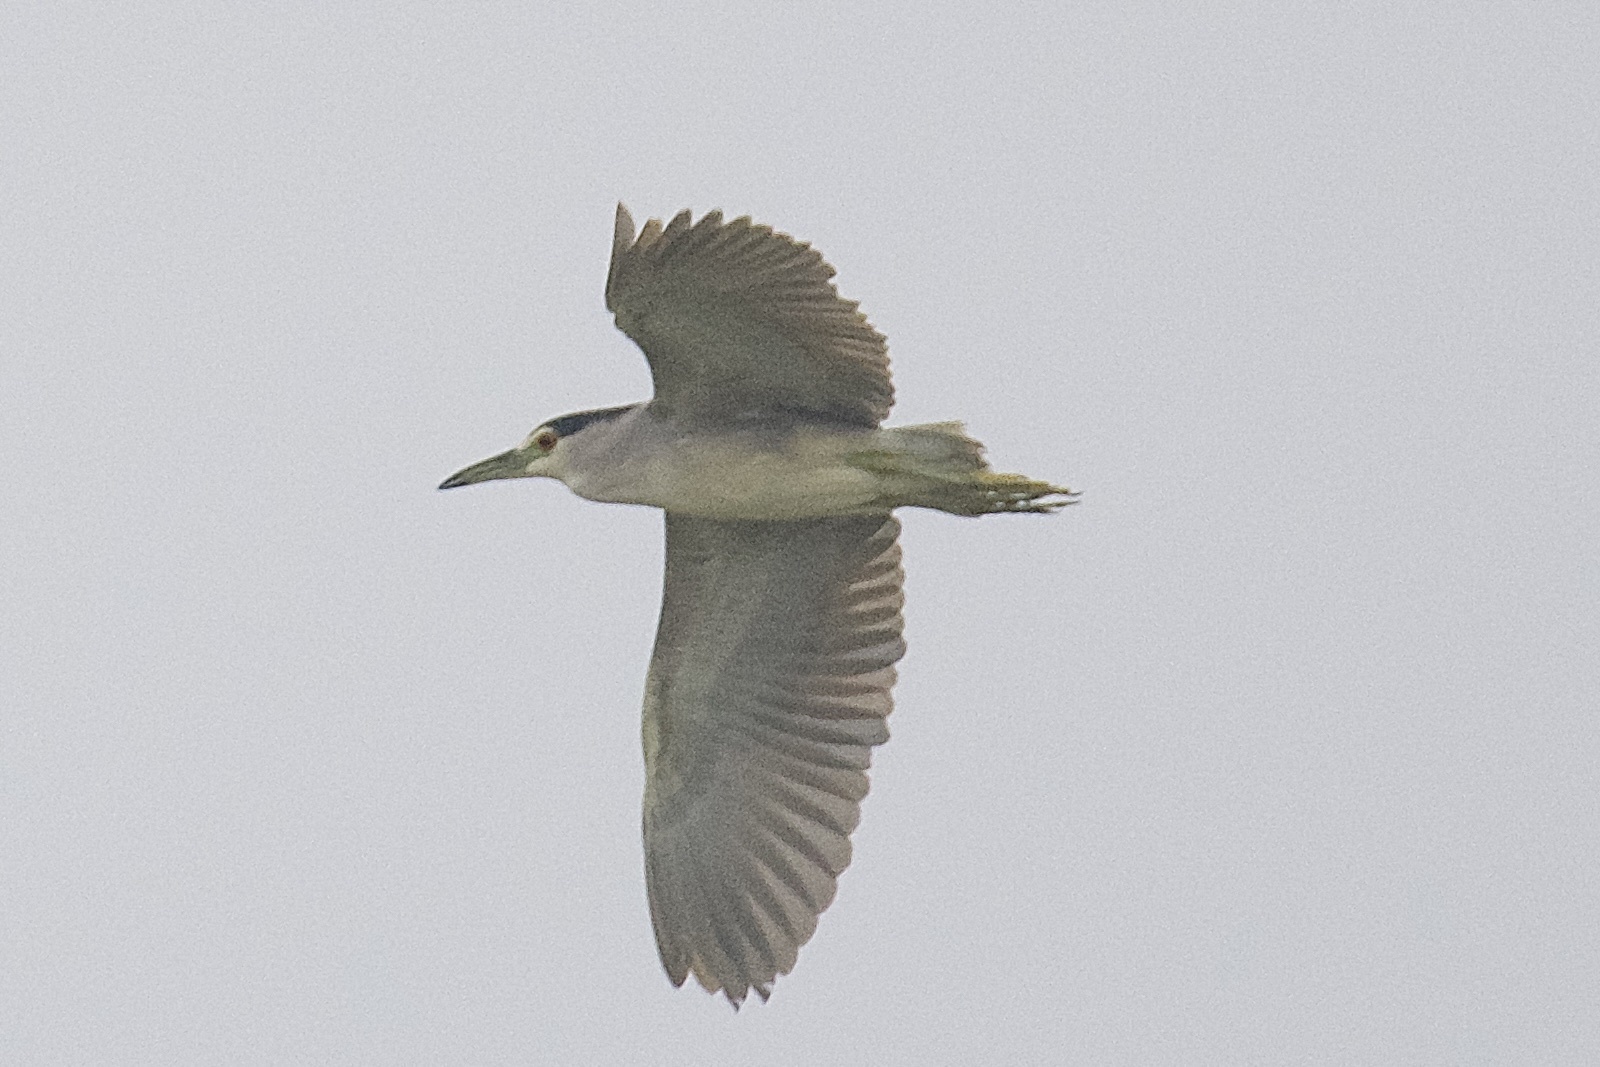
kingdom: Animalia
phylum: Chordata
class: Aves
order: Pelecaniformes
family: Ardeidae
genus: Nycticorax
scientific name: Nycticorax nycticorax
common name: Black-crowned night heron
